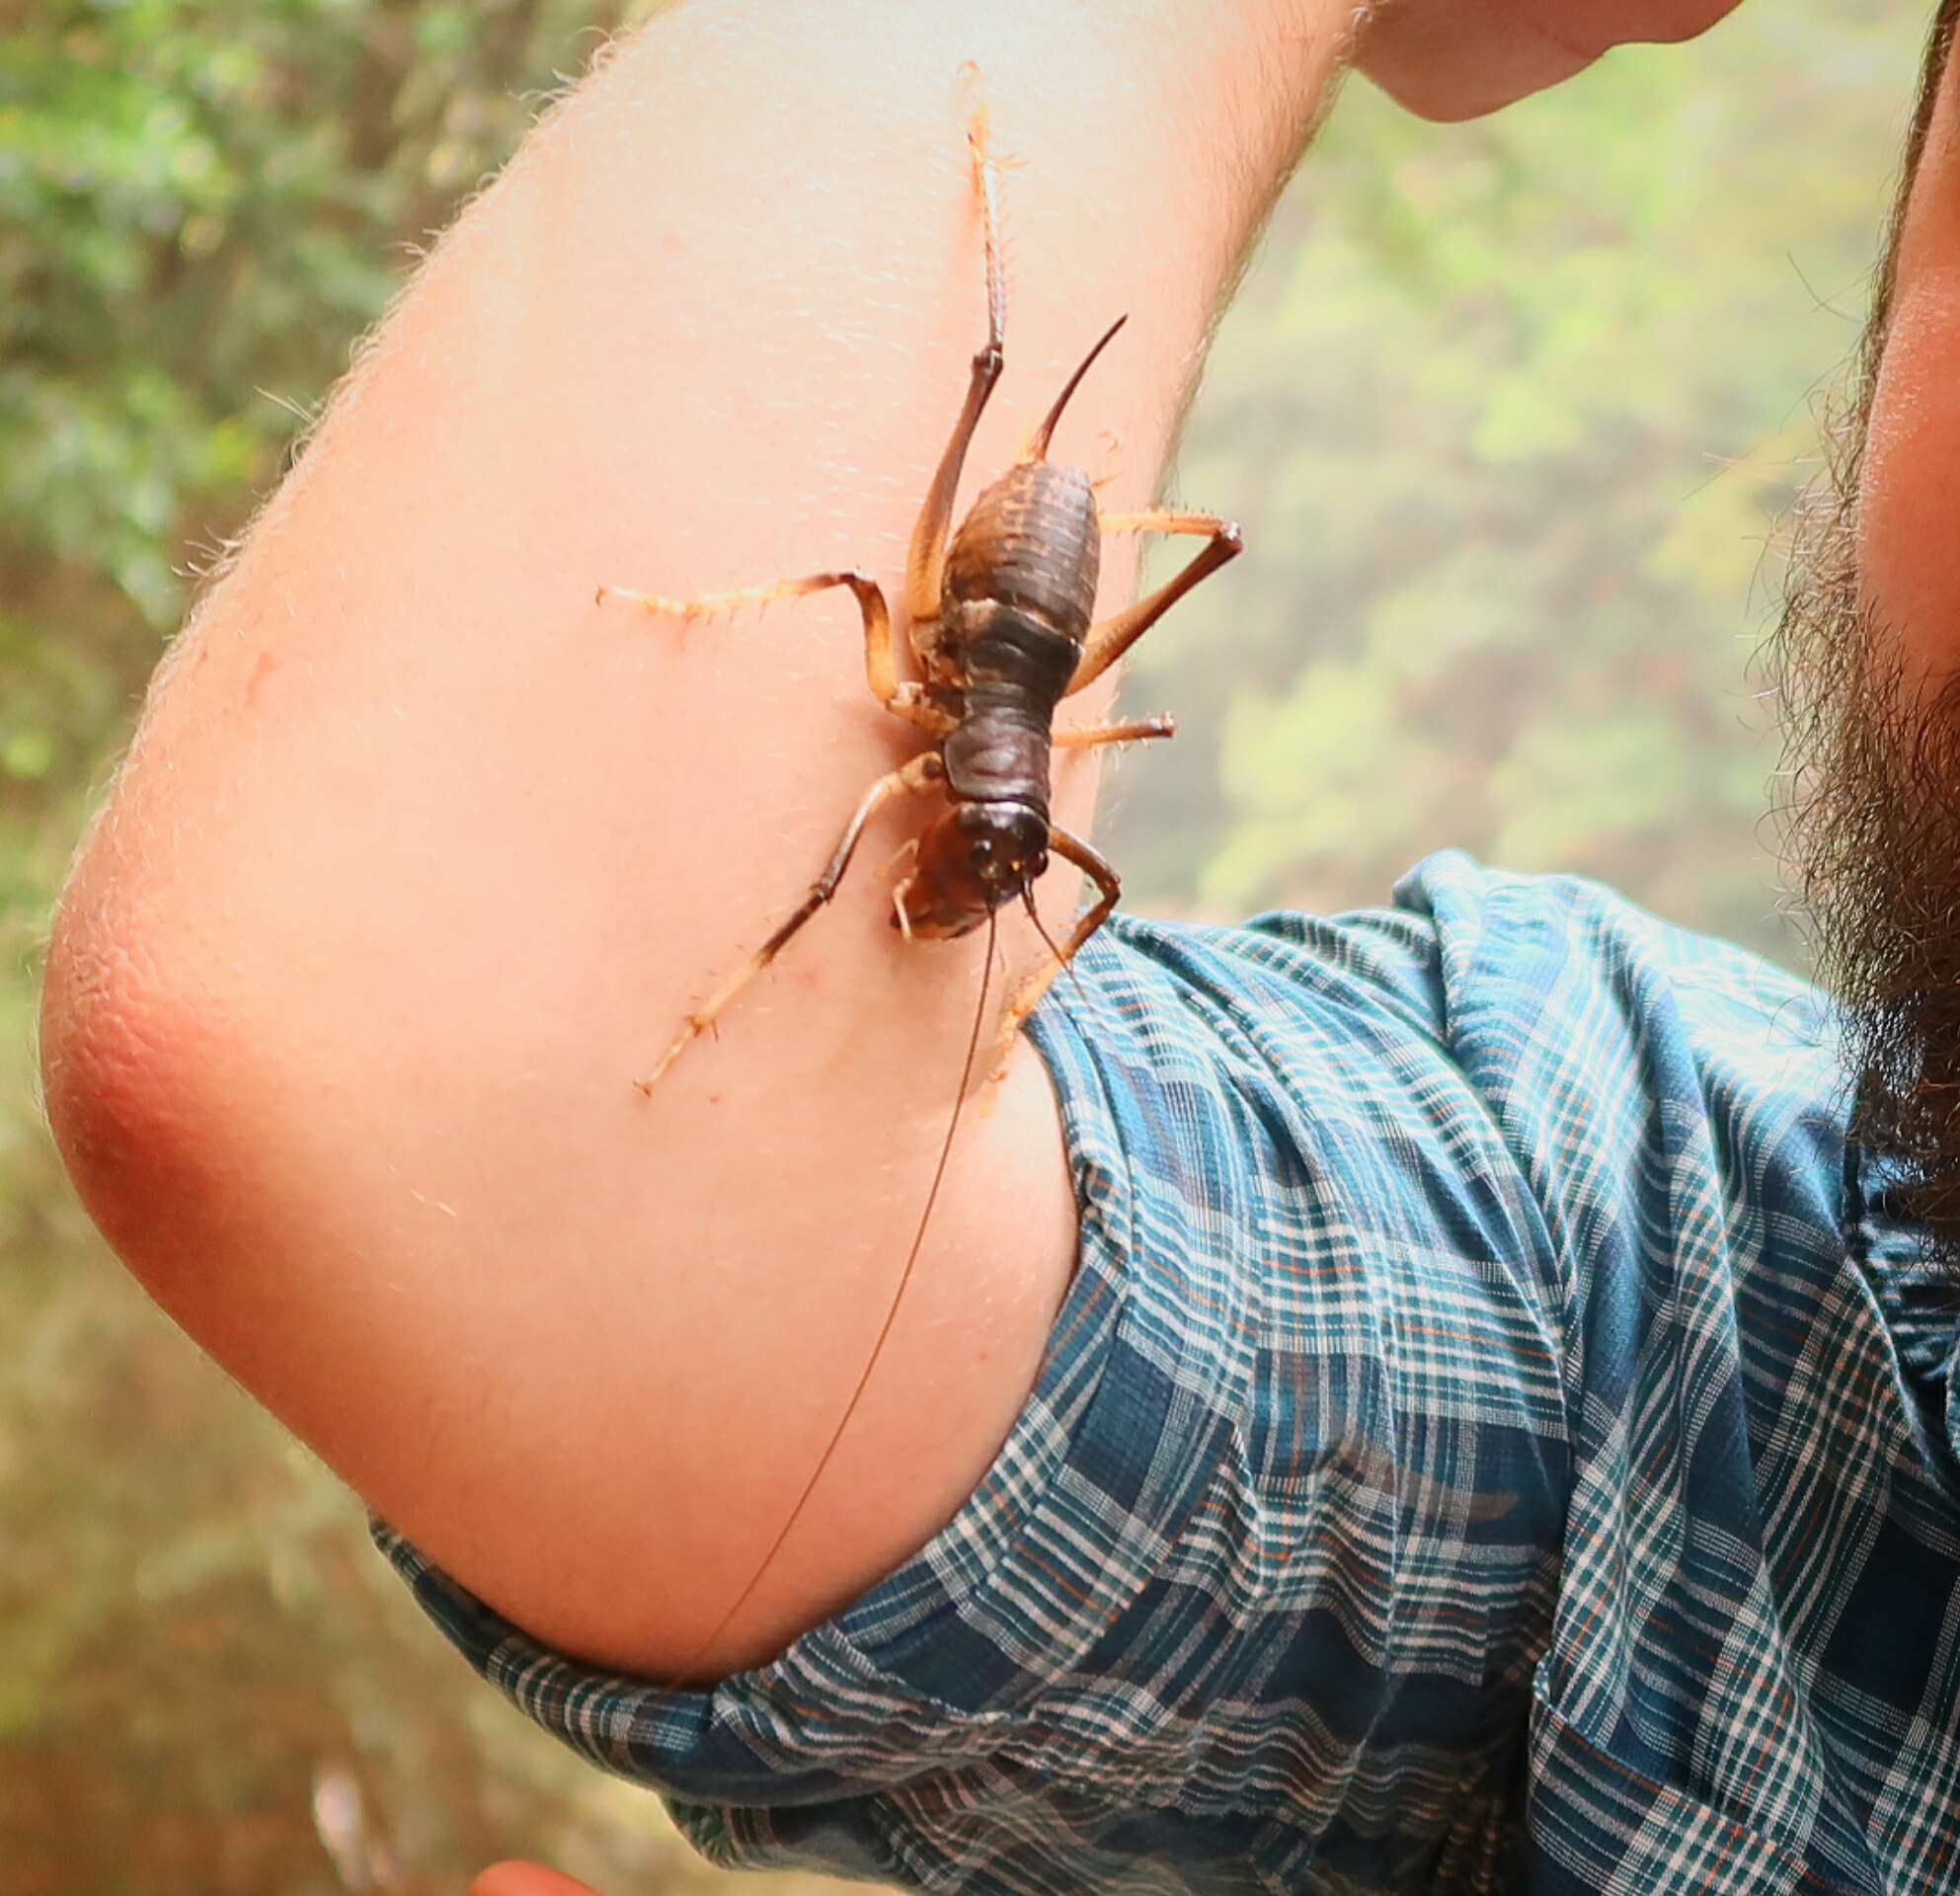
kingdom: Animalia
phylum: Arthropoda
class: Insecta
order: Orthoptera
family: Anostostomatidae
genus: Anostostoma
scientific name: Anostostoma australasiae
